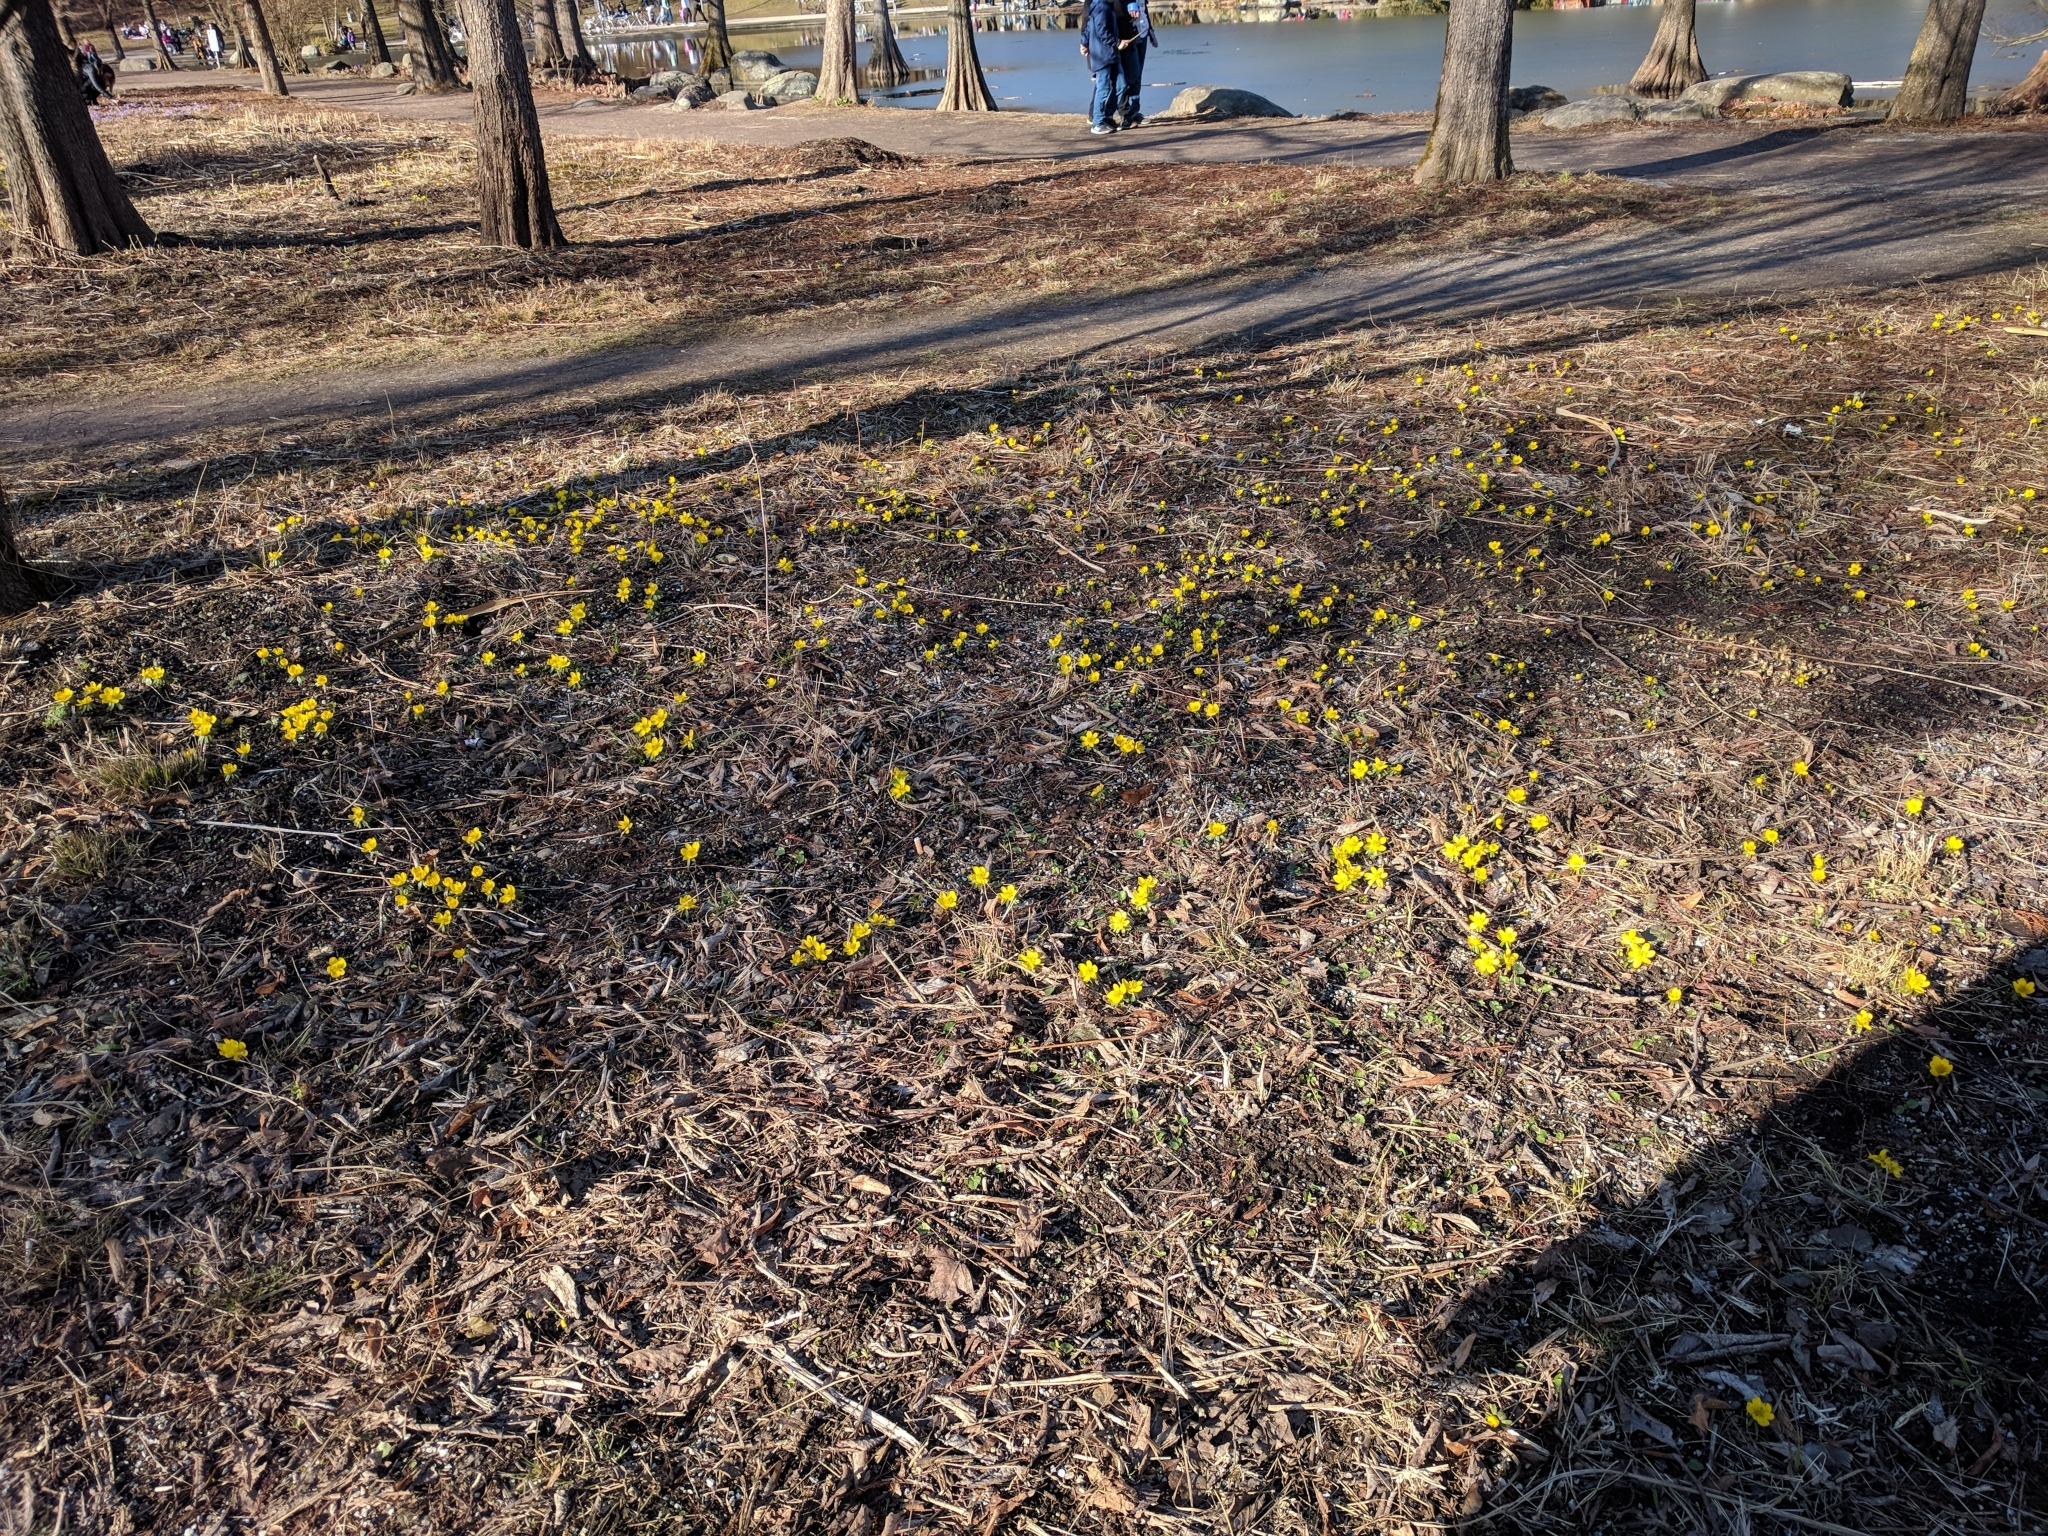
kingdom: Plantae
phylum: Tracheophyta
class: Magnoliopsida
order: Ranunculales
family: Ranunculaceae
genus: Eranthis
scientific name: Eranthis hyemalis
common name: Winter aconite
